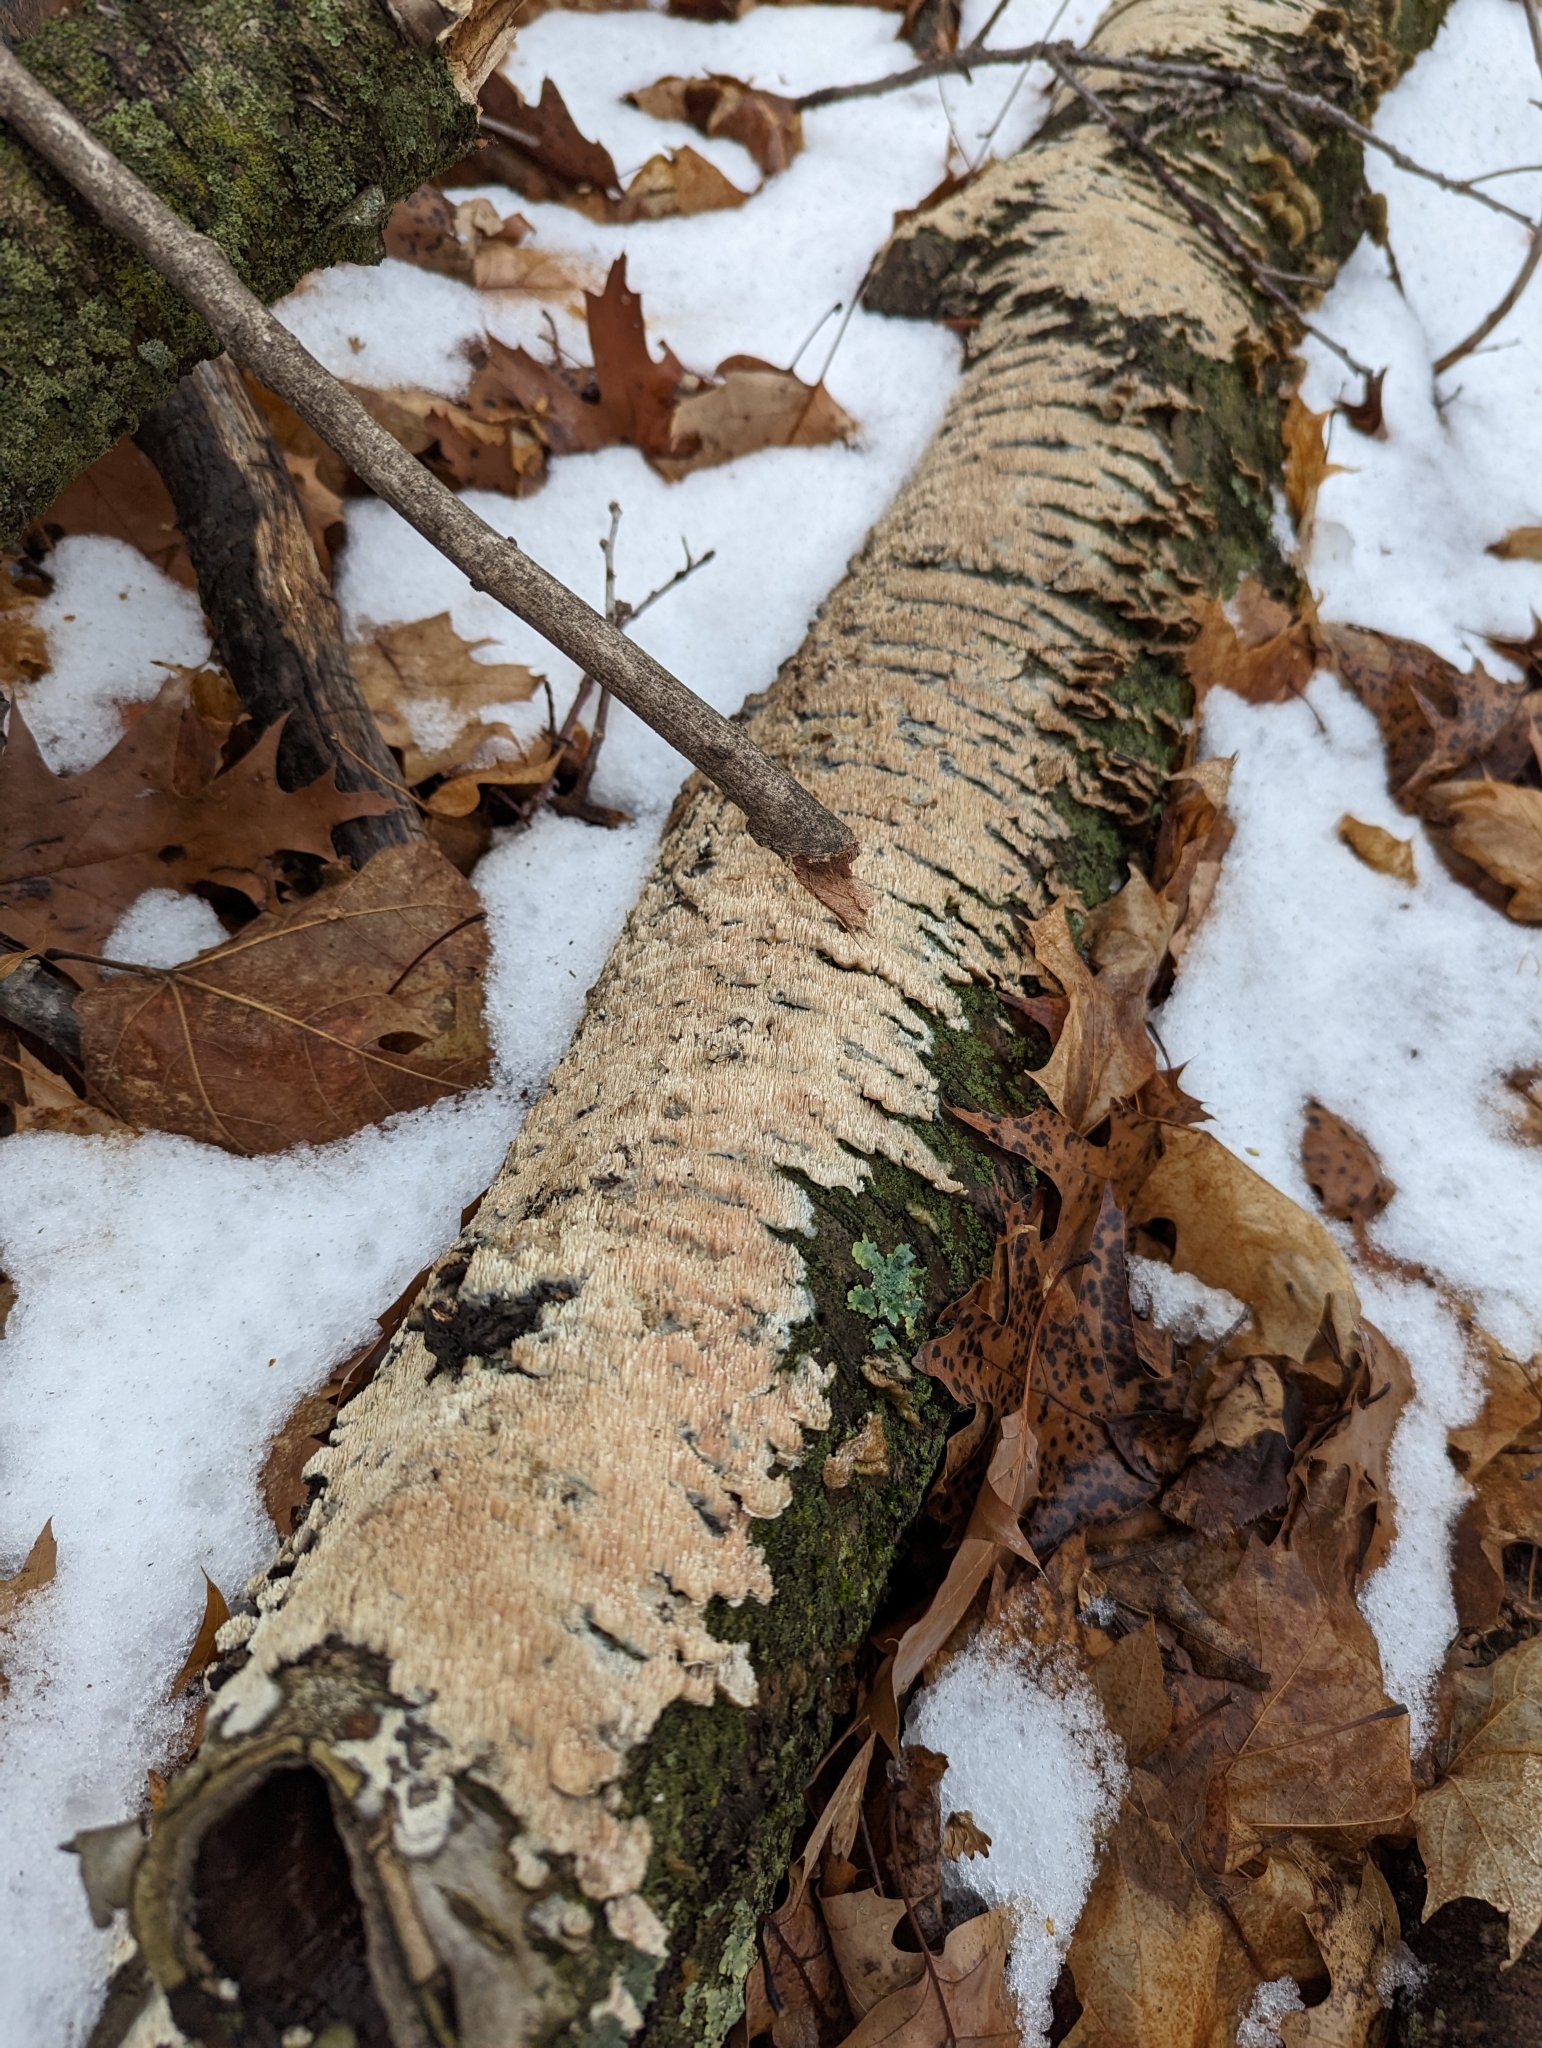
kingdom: Fungi
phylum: Basidiomycota
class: Agaricomycetes
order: Polyporales
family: Irpicaceae
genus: Irpex
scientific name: Irpex lacteus
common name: Milk-white toothed polypore
